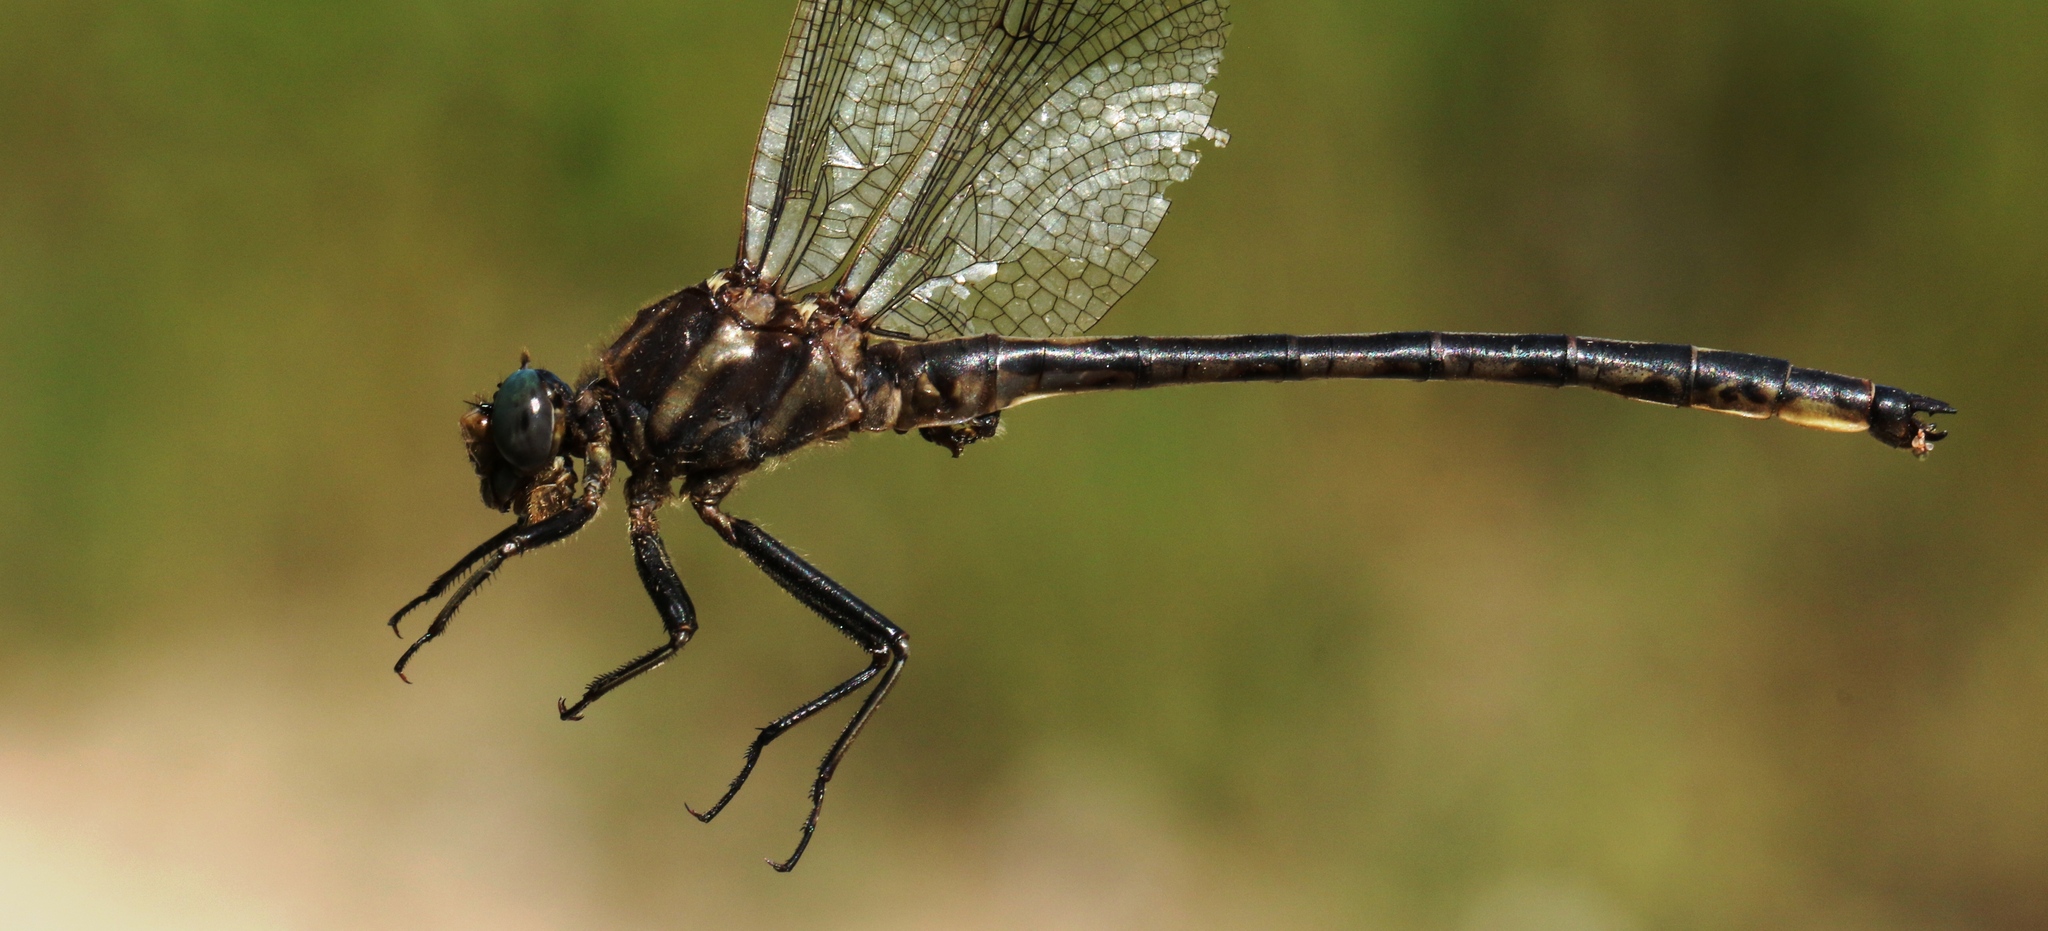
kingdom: Animalia
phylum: Arthropoda
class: Insecta
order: Odonata
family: Gomphidae
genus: Phanogomphus
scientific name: Phanogomphus spicatus
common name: Dusky clubtail
